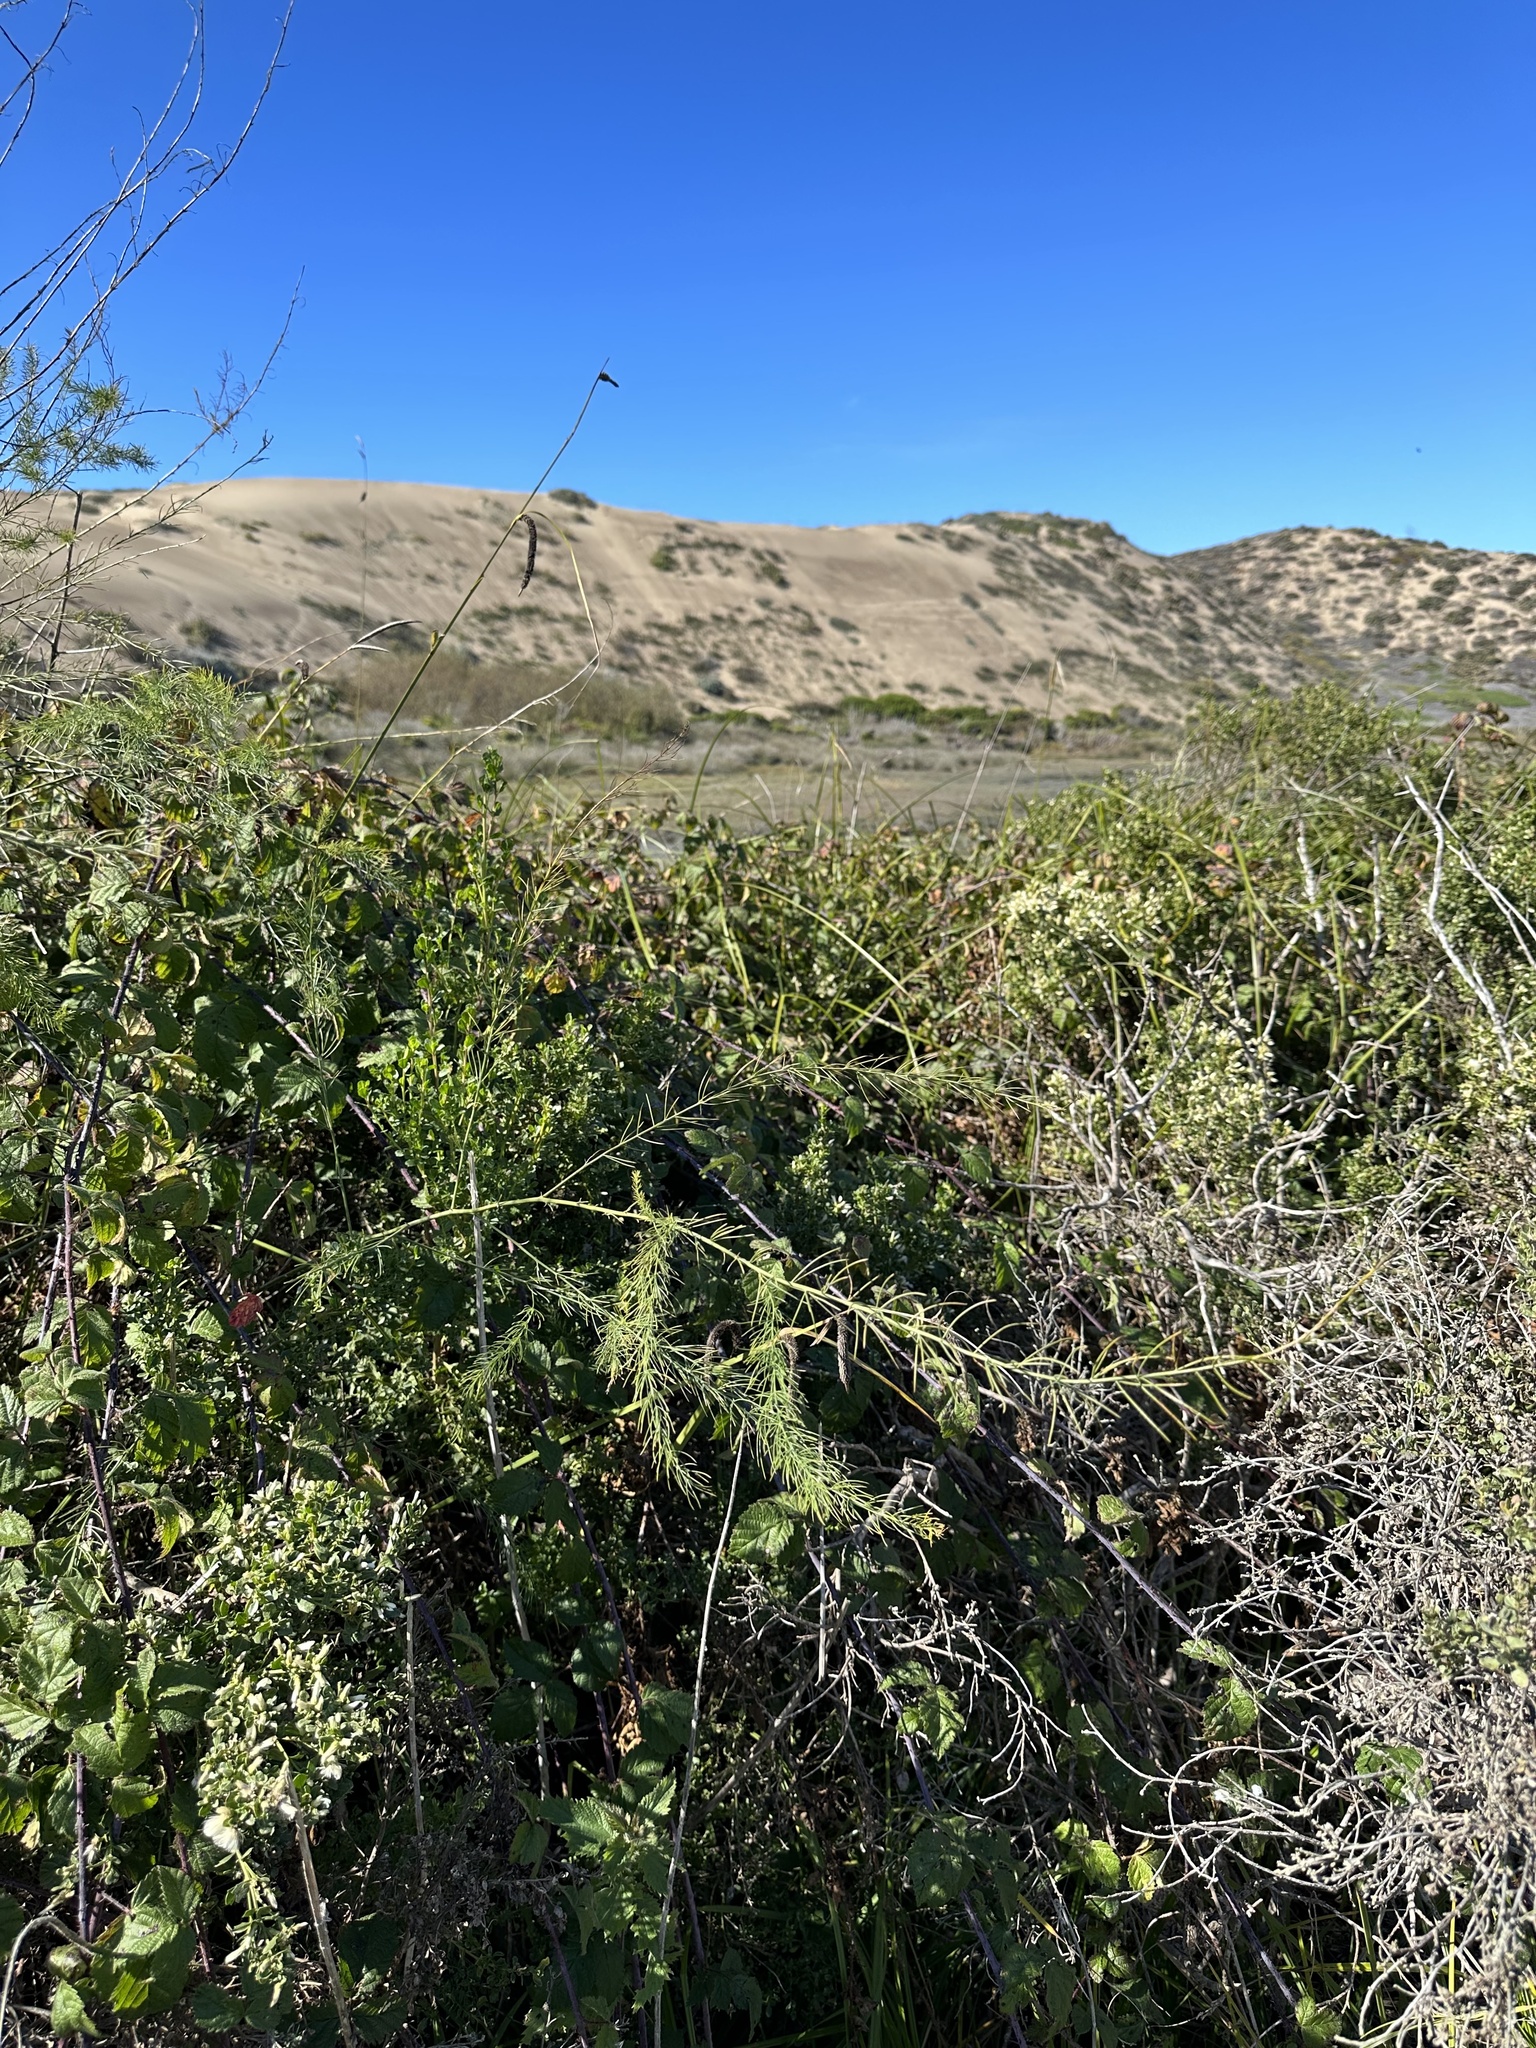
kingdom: Plantae
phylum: Tracheophyta
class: Liliopsida
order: Asparagales
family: Asparagaceae
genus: Asparagus
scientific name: Asparagus officinalis
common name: Garden asparagus
